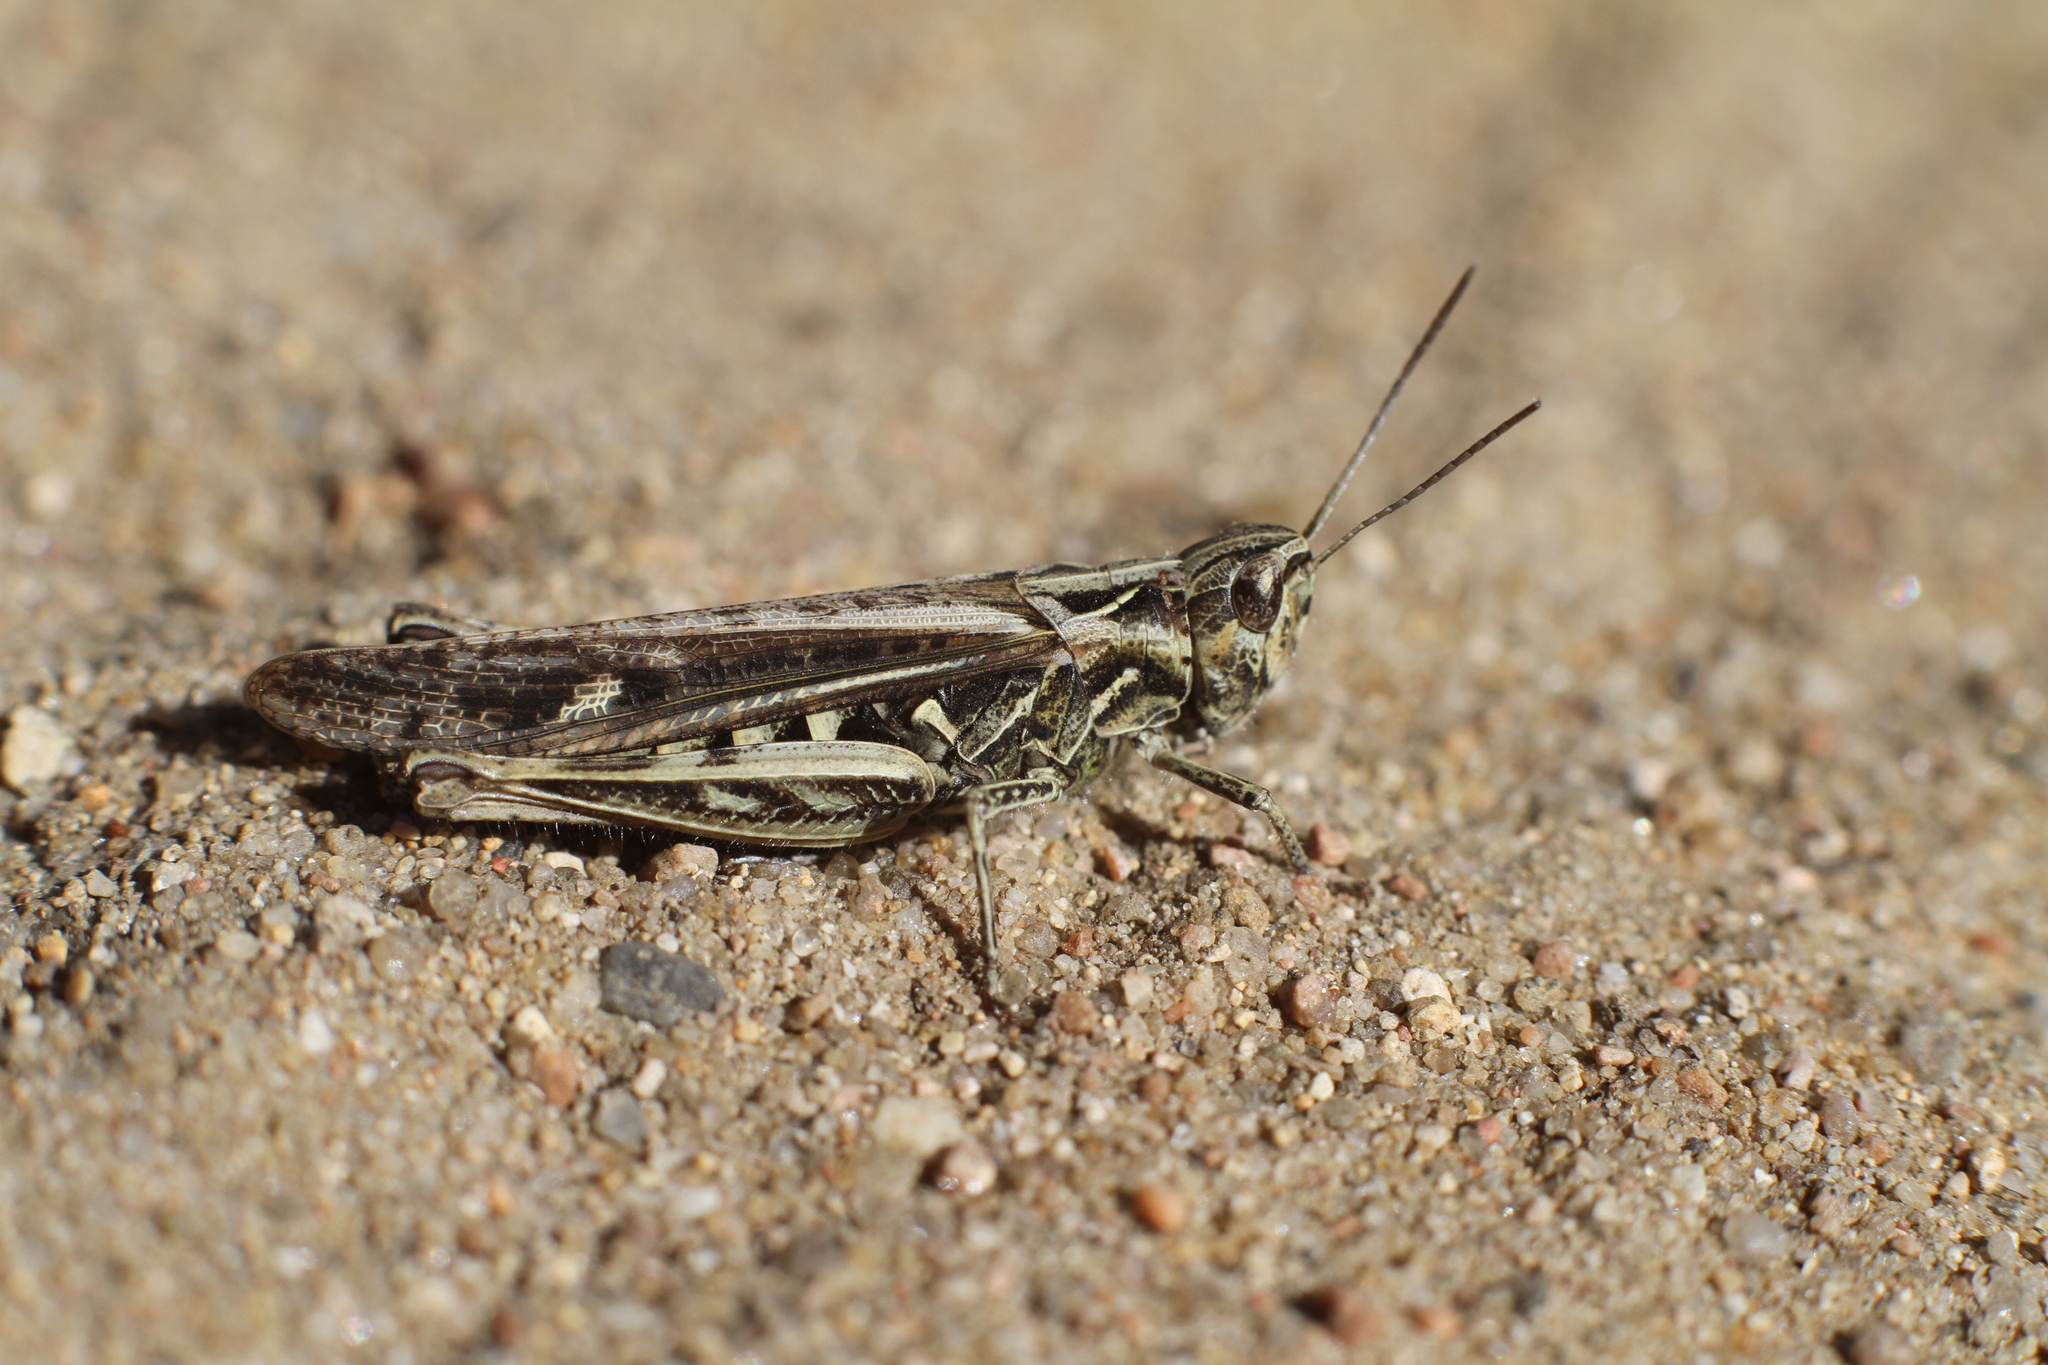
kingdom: Animalia
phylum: Arthropoda
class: Insecta
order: Orthoptera
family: Acrididae
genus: Chorthippus
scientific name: Chorthippus biguttulus
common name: Bow-winged grasshopper
